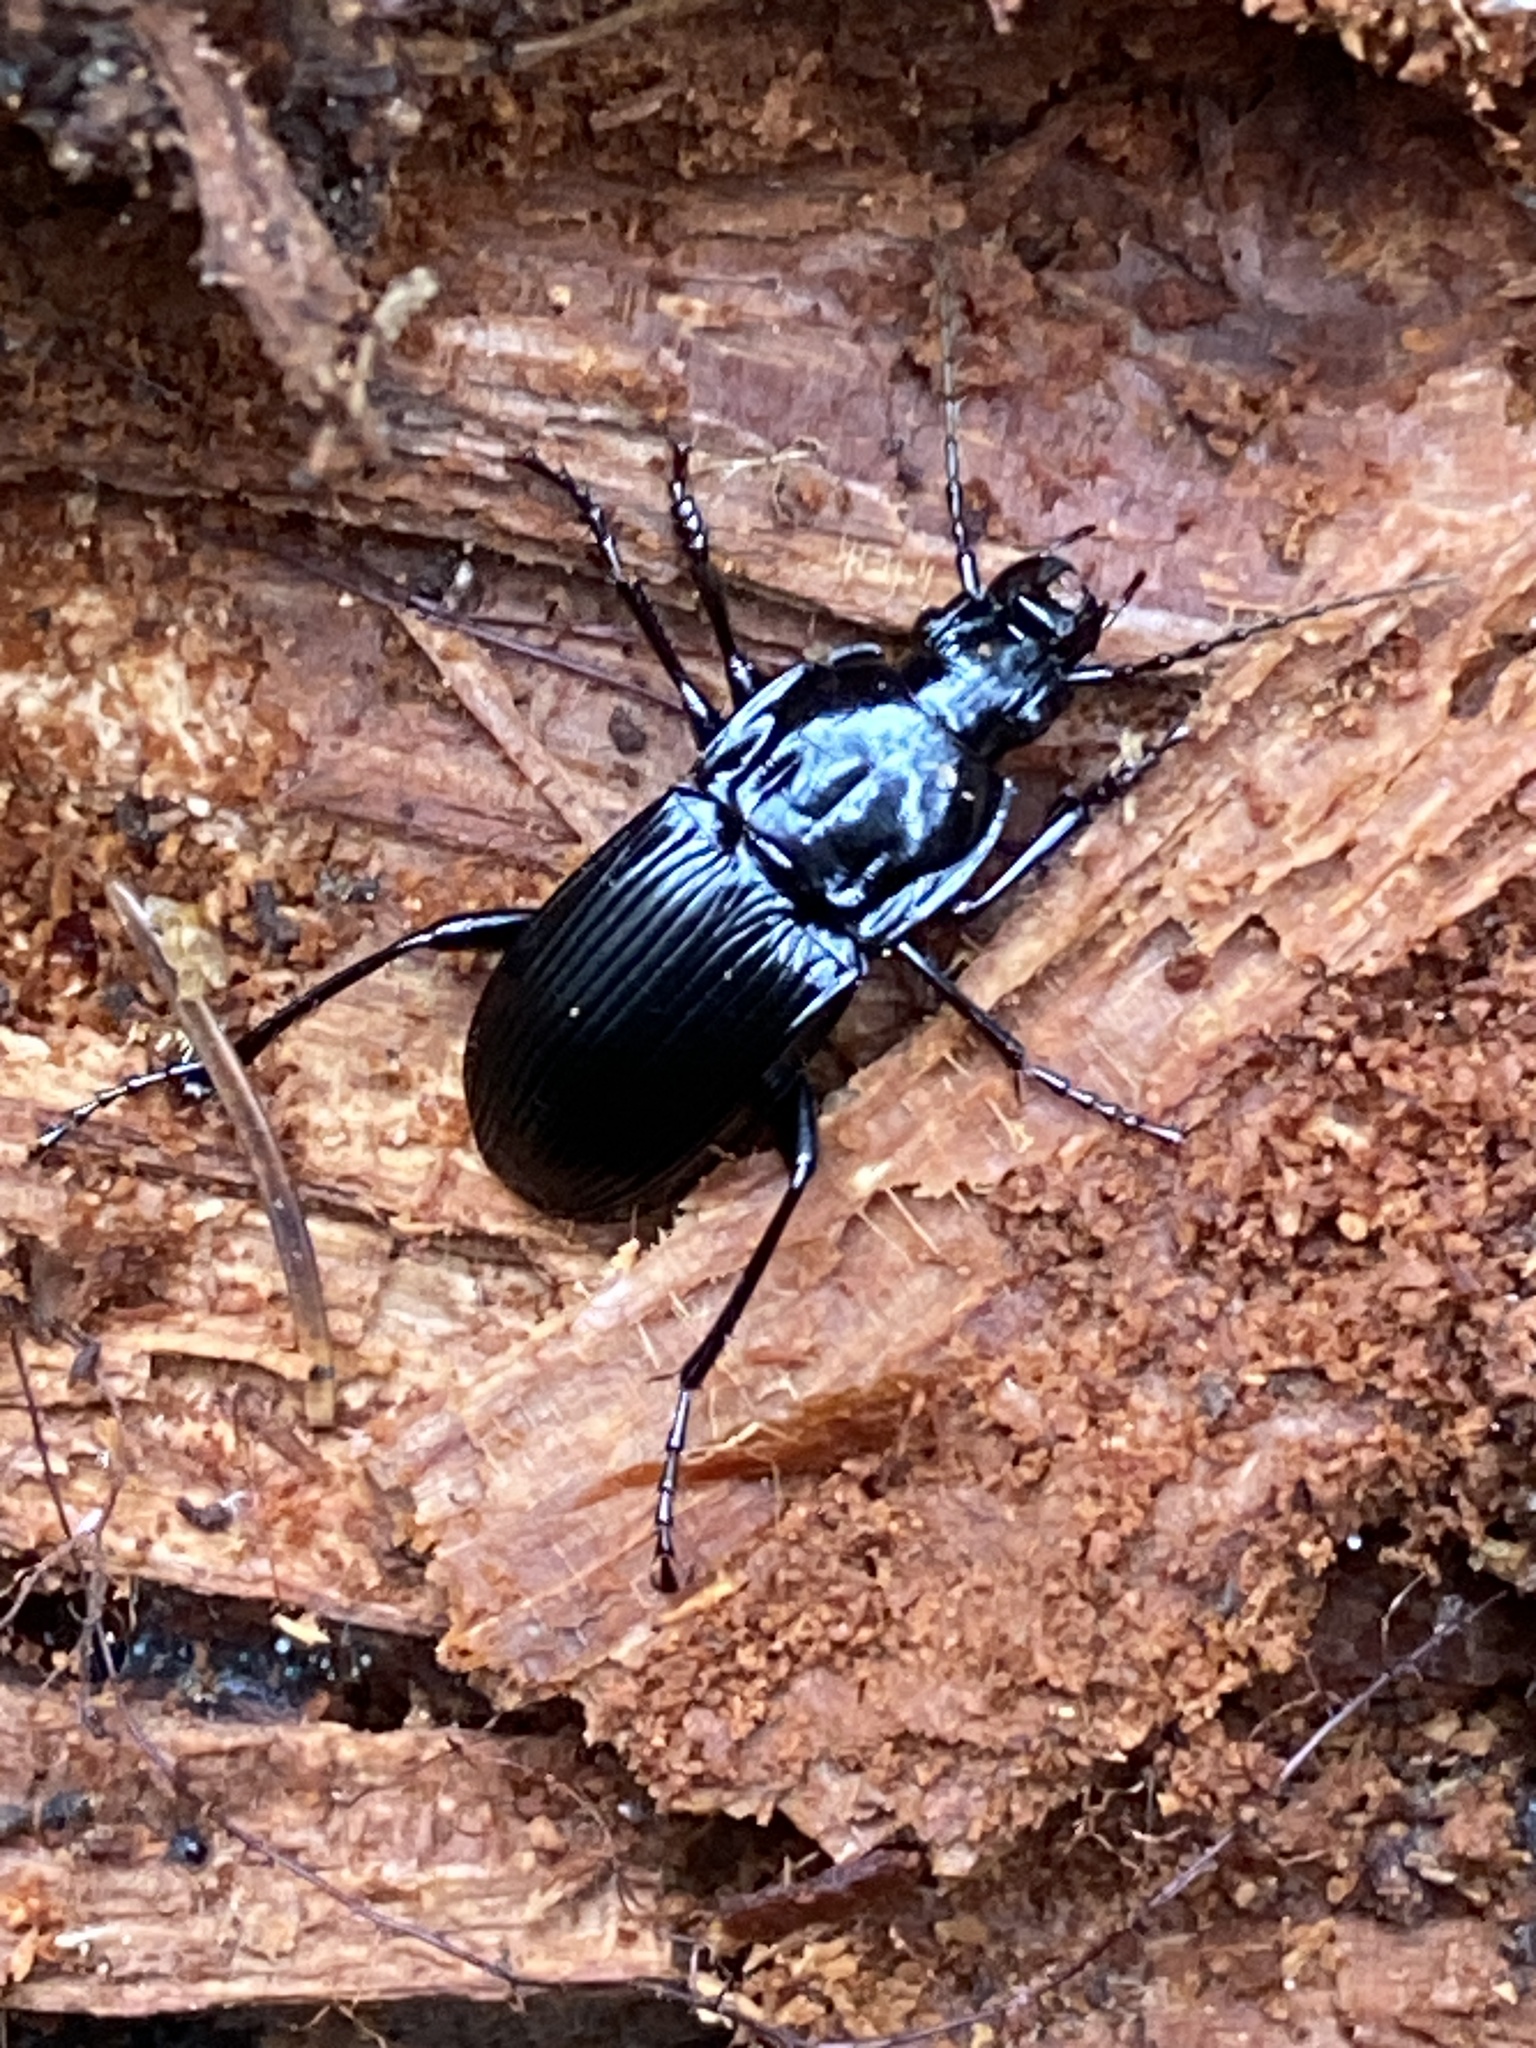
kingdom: Animalia
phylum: Arthropoda
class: Insecta
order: Coleoptera
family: Carabidae
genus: Abax
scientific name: Abax parallelepipedus
